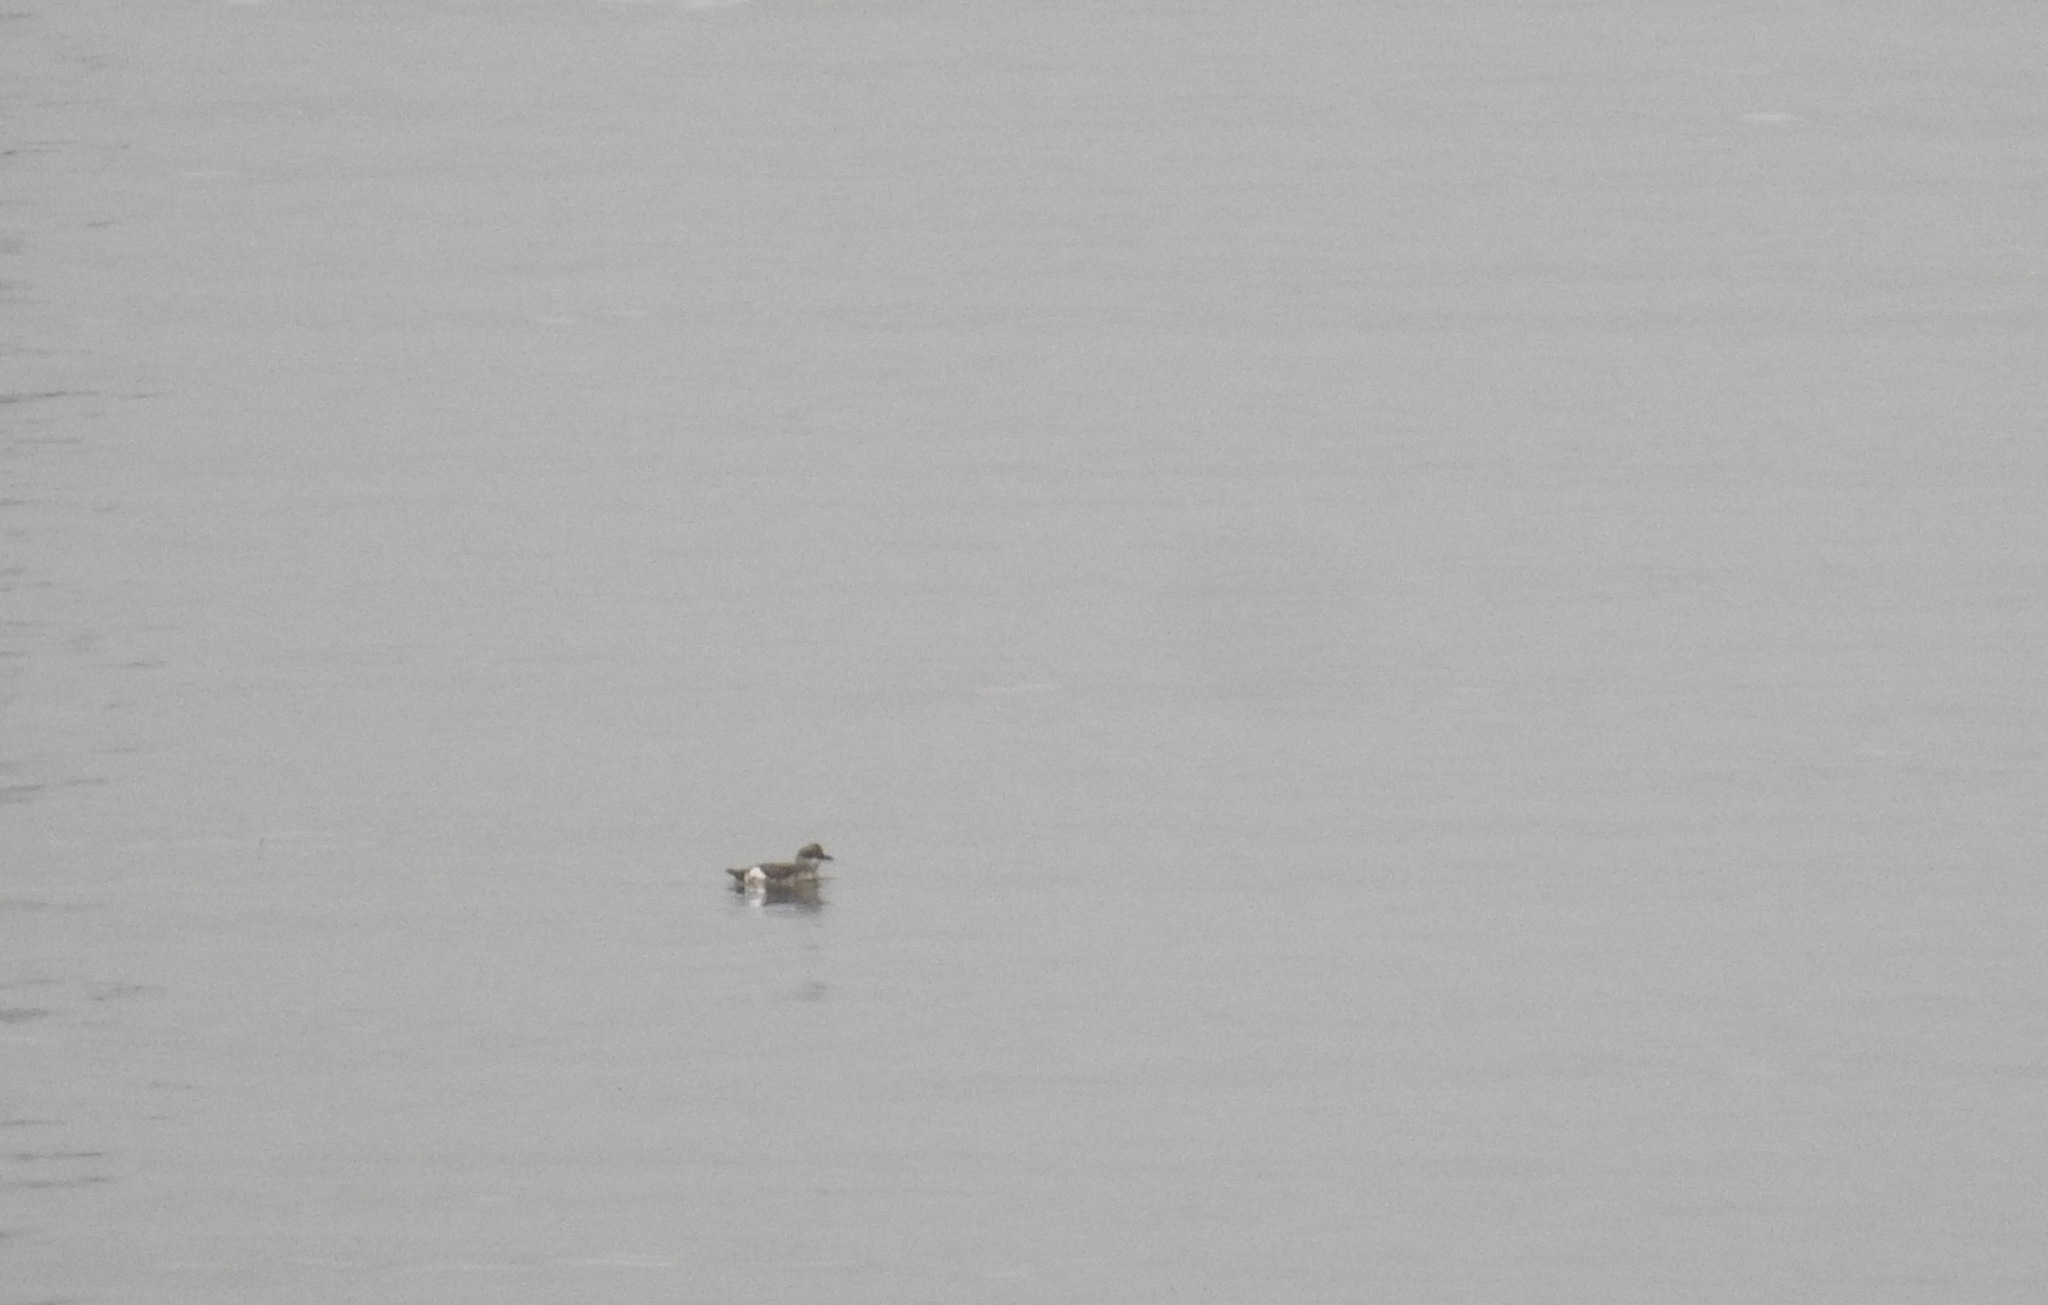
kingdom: Animalia
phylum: Chordata
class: Aves
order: Charadriiformes
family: Alcidae
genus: Cepphus
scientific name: Cepphus columba
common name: Pigeon guillemot
